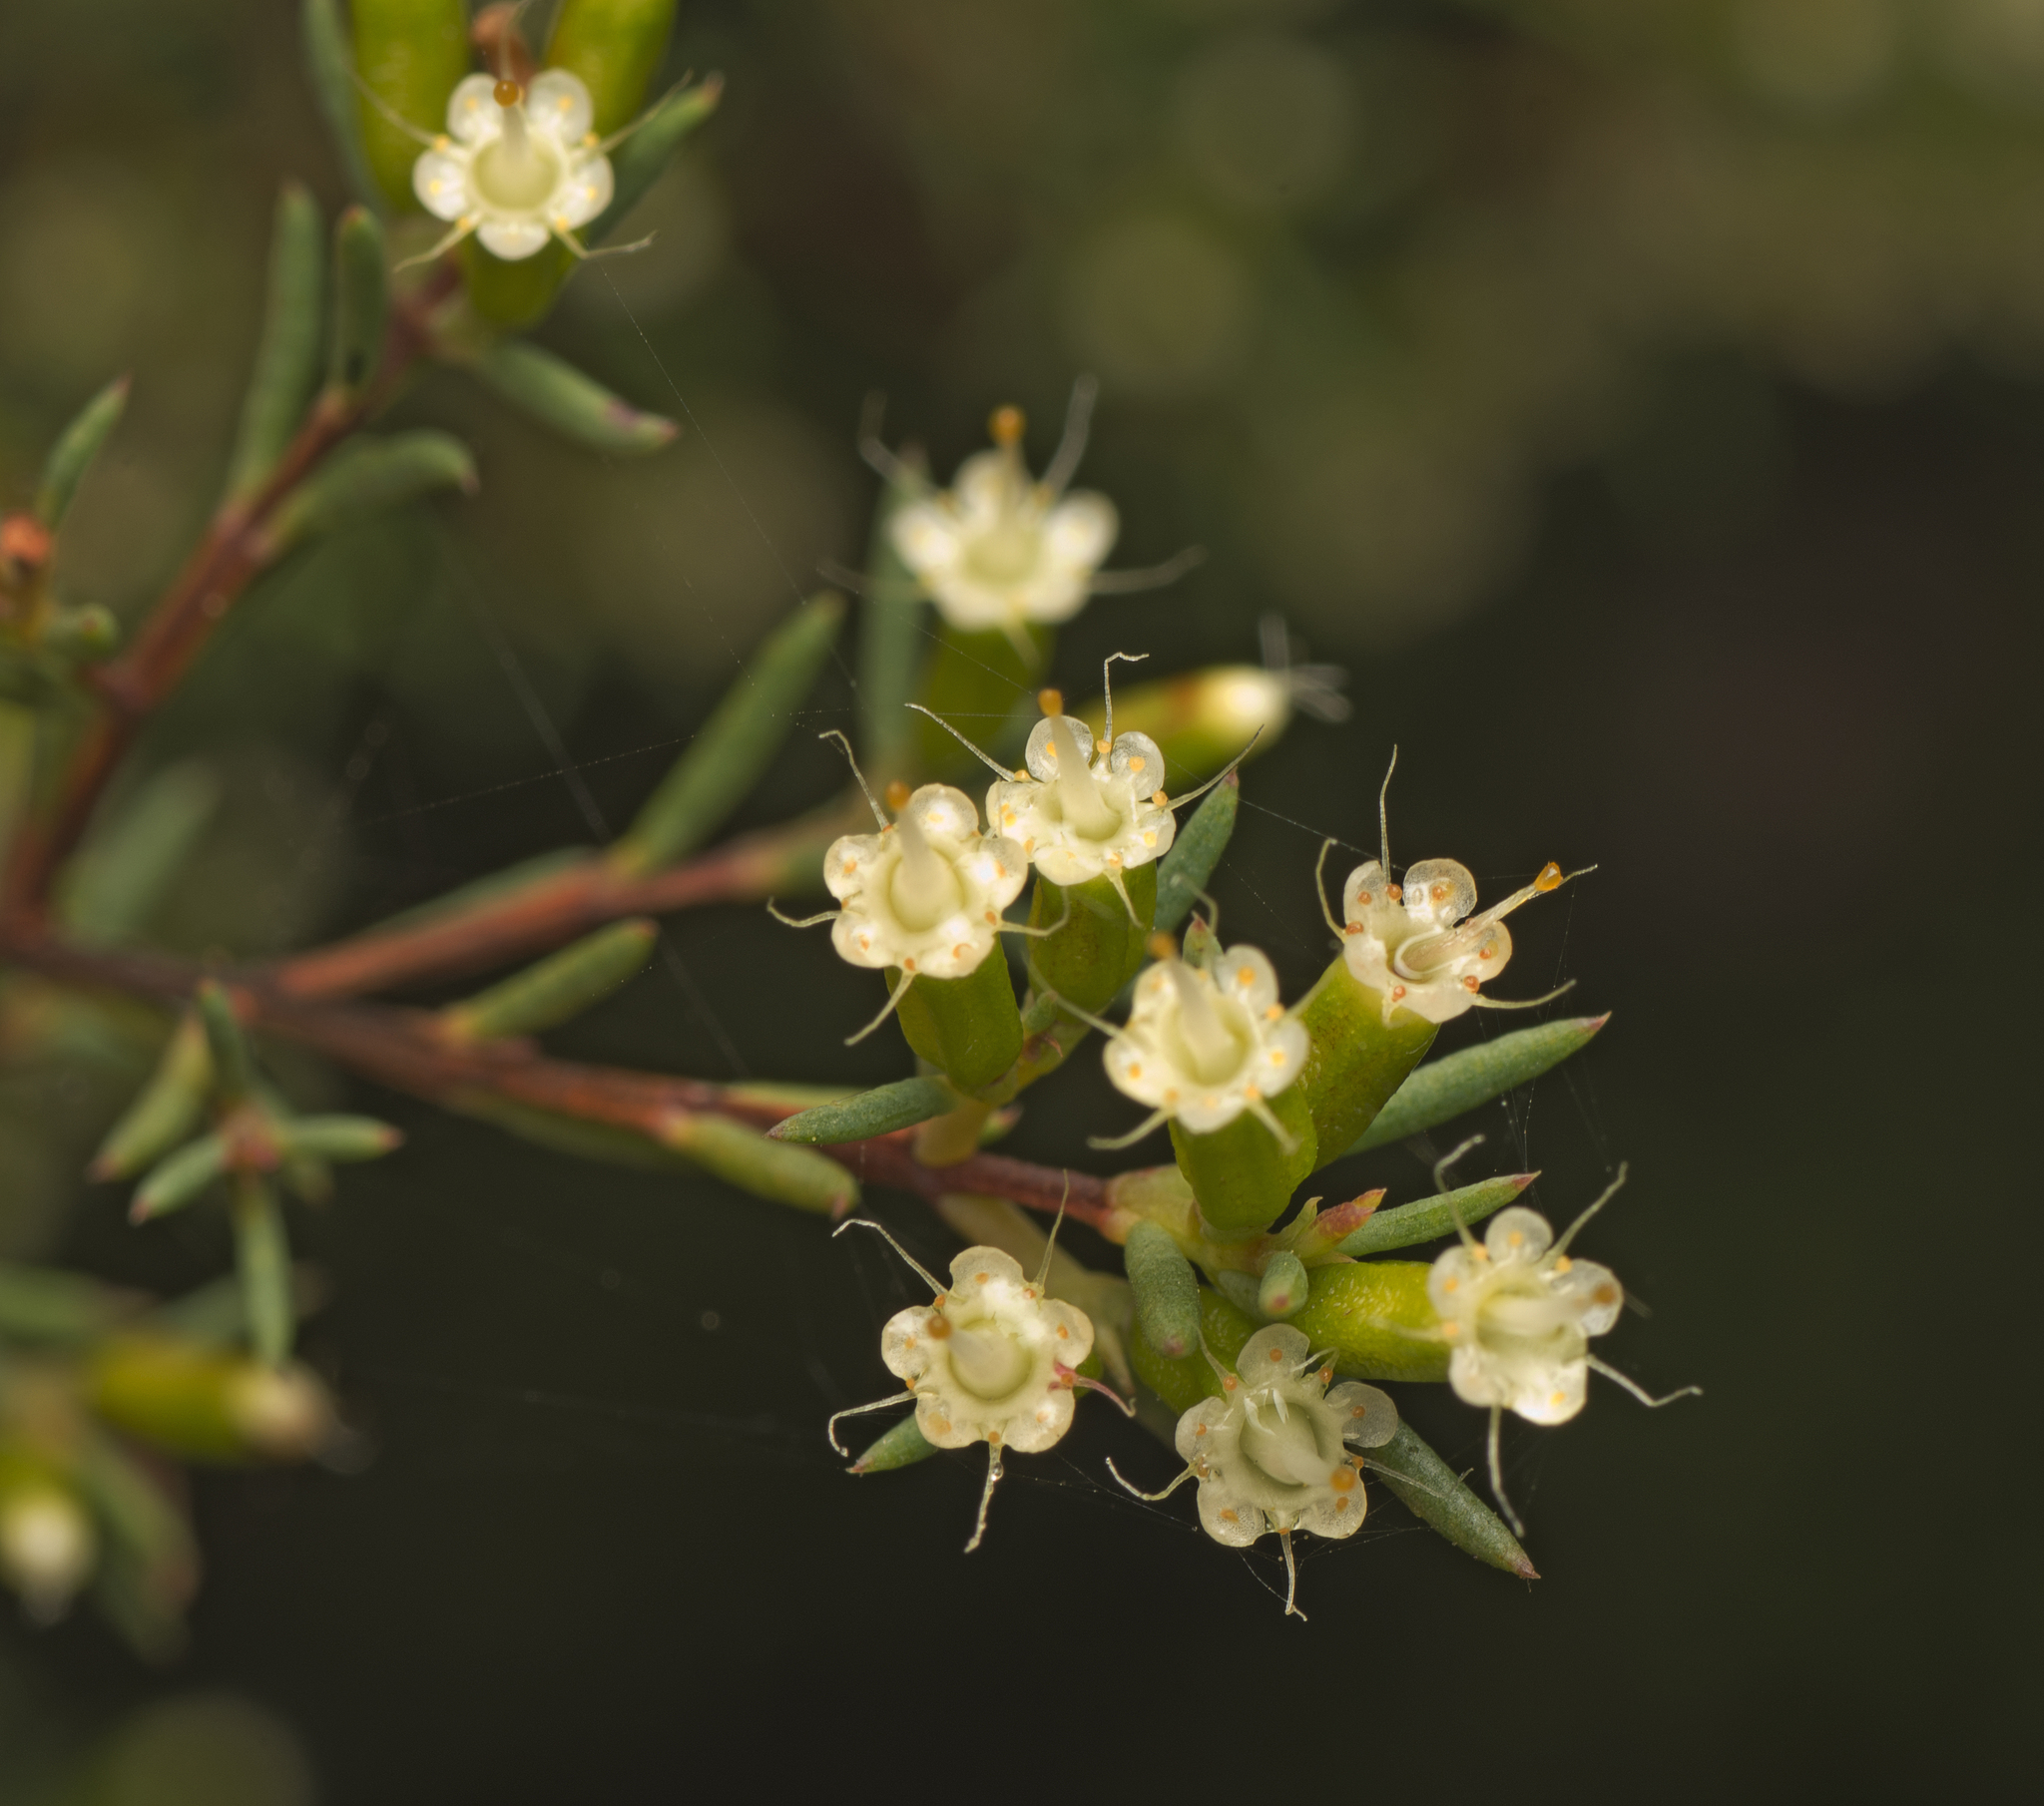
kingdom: Plantae
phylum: Tracheophyta
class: Magnoliopsida
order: Myrtales
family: Myrtaceae
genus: Homoranthus
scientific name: Homoranthus virgatus
